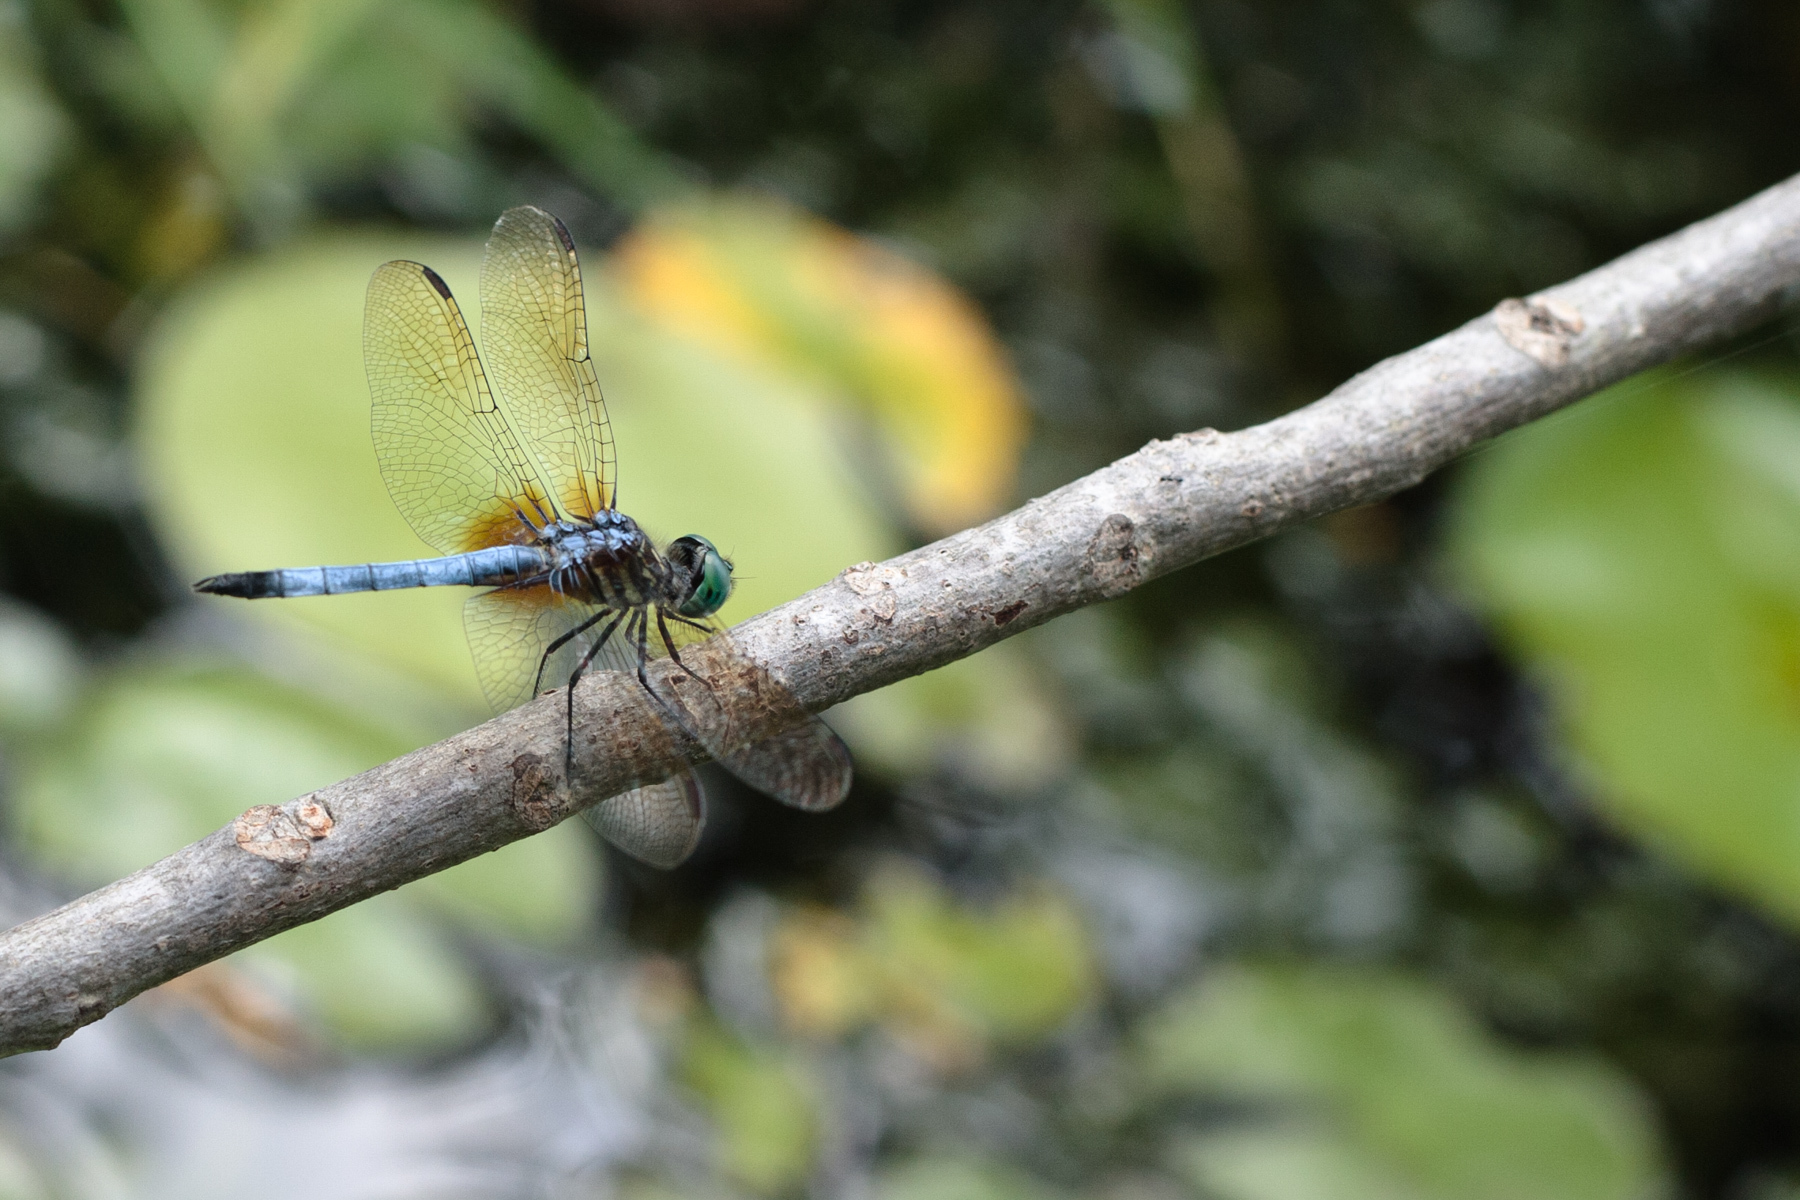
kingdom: Animalia
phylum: Arthropoda
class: Insecta
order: Odonata
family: Libellulidae
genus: Pachydiplax
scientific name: Pachydiplax longipennis
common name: Blue dasher
